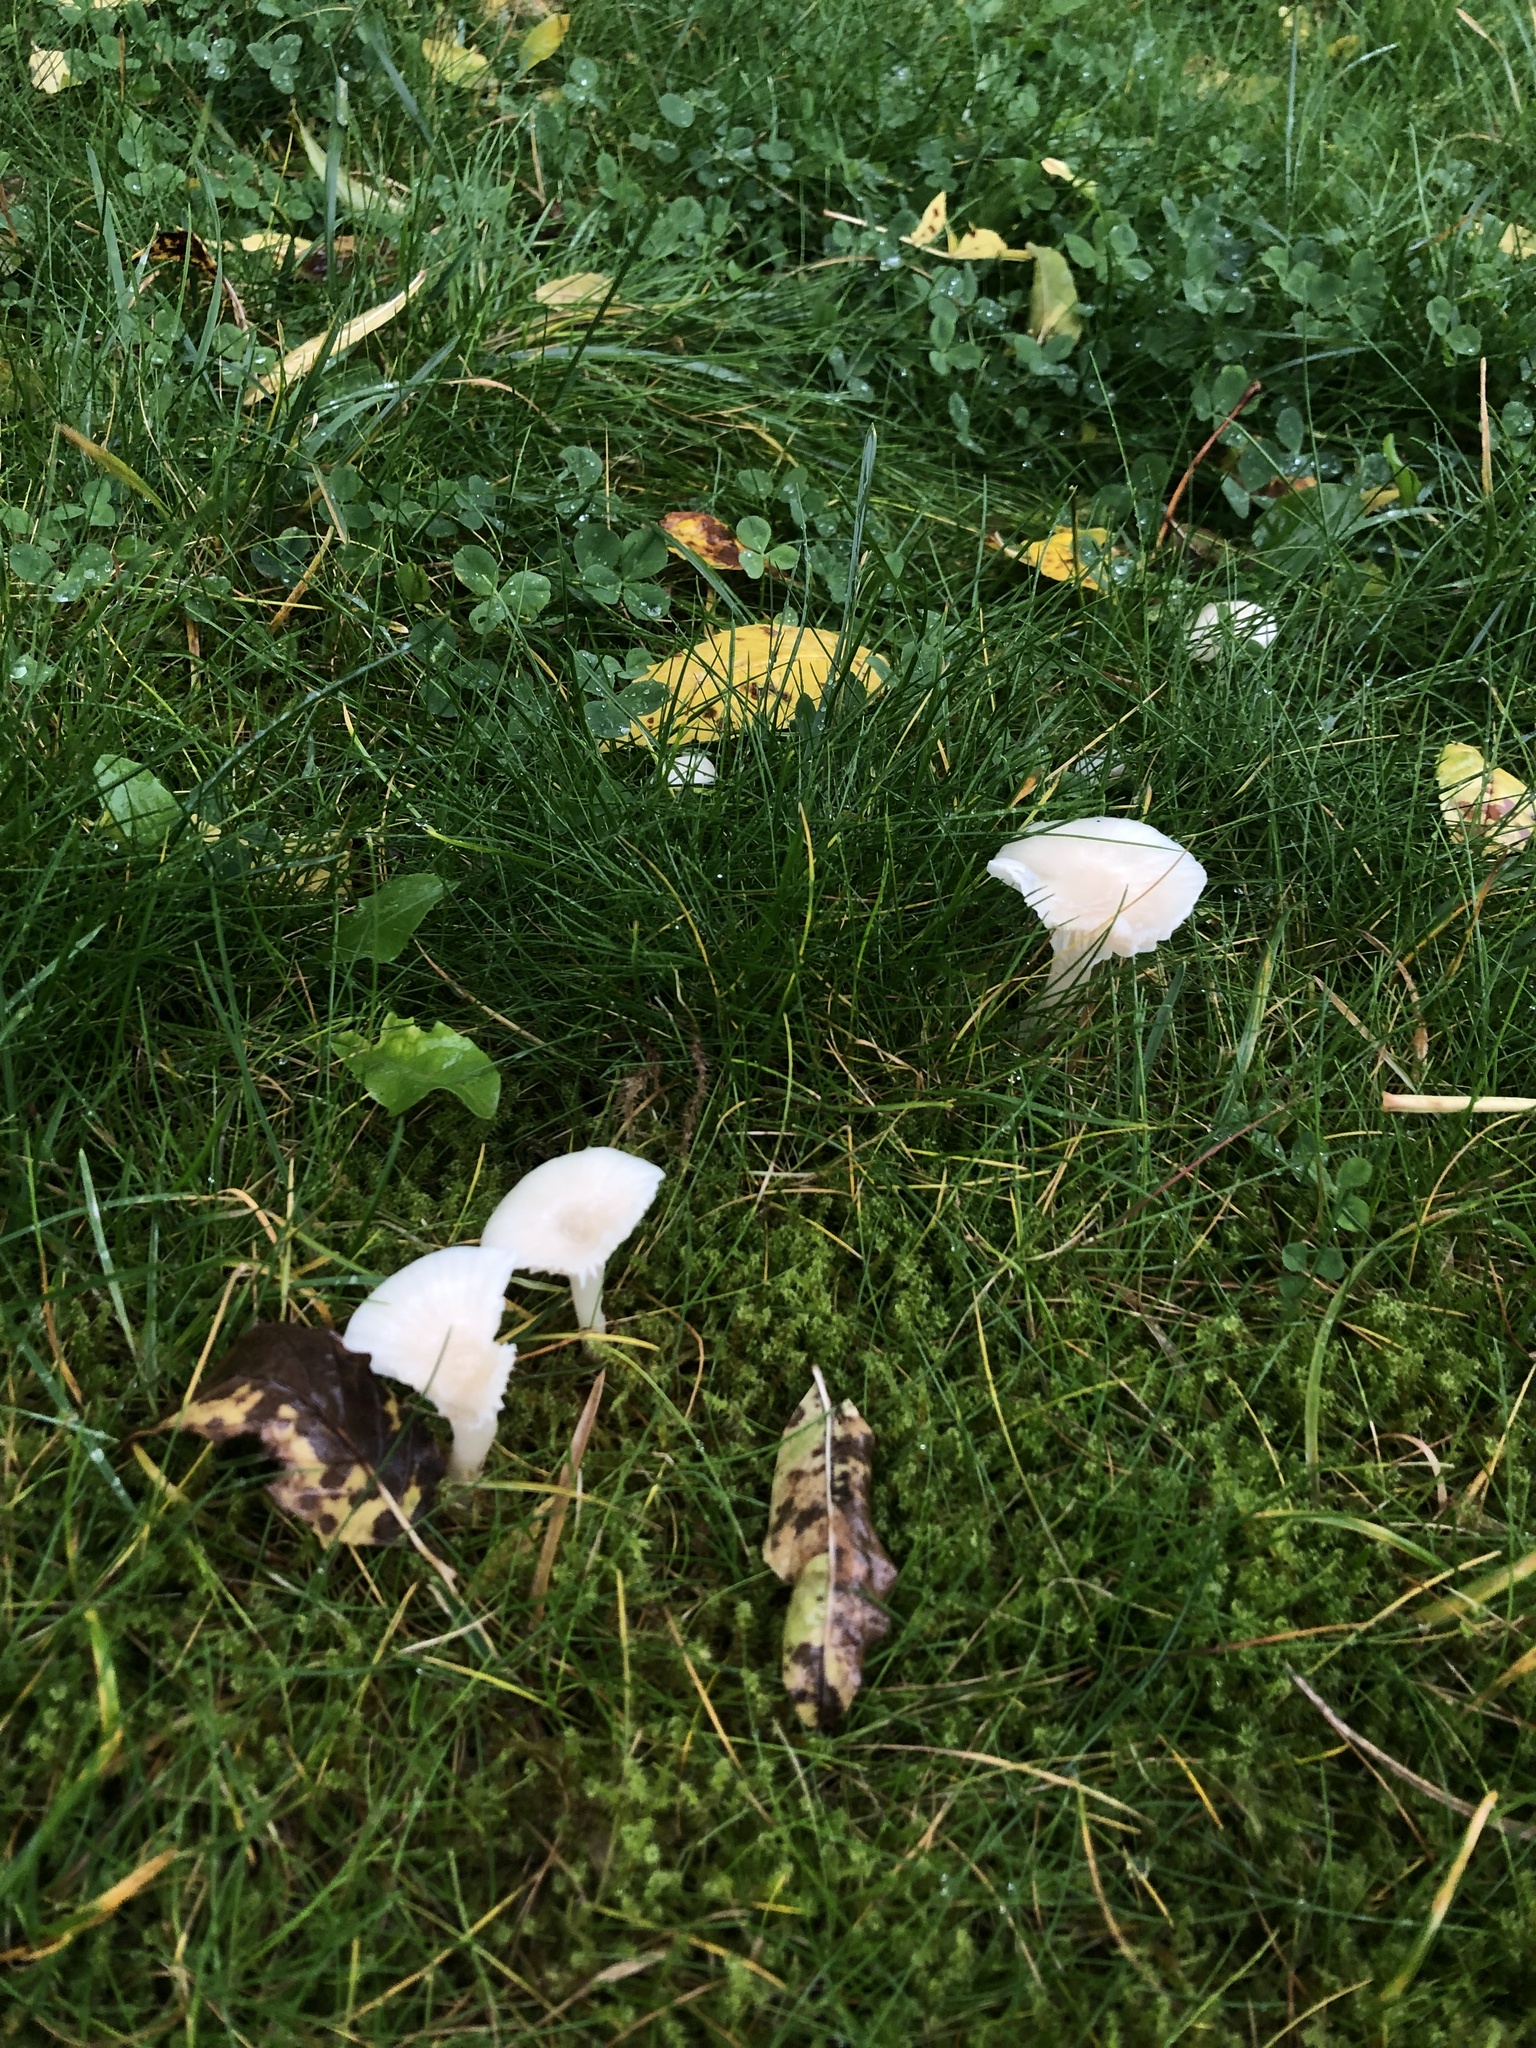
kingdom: Fungi
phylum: Basidiomycota
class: Agaricomycetes
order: Agaricales
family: Hygrophoraceae
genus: Cuphophyllus
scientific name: Cuphophyllus virgineus
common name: Snowy waxcap
